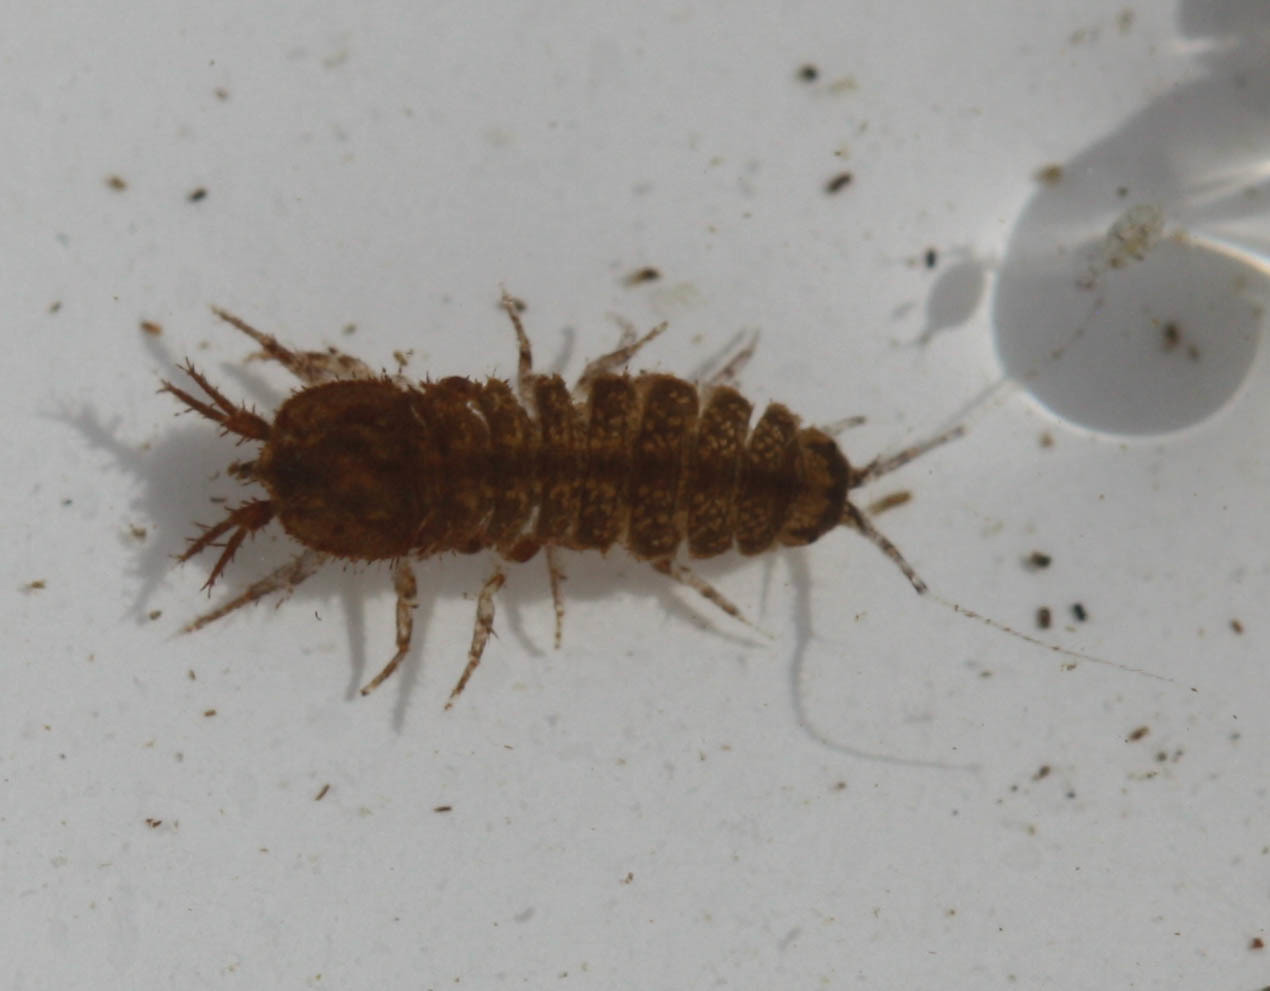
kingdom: Animalia
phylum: Arthropoda
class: Malacostraca
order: Isopoda
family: Asellidae
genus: Caecidotea
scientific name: Caecidotea tomalensis
